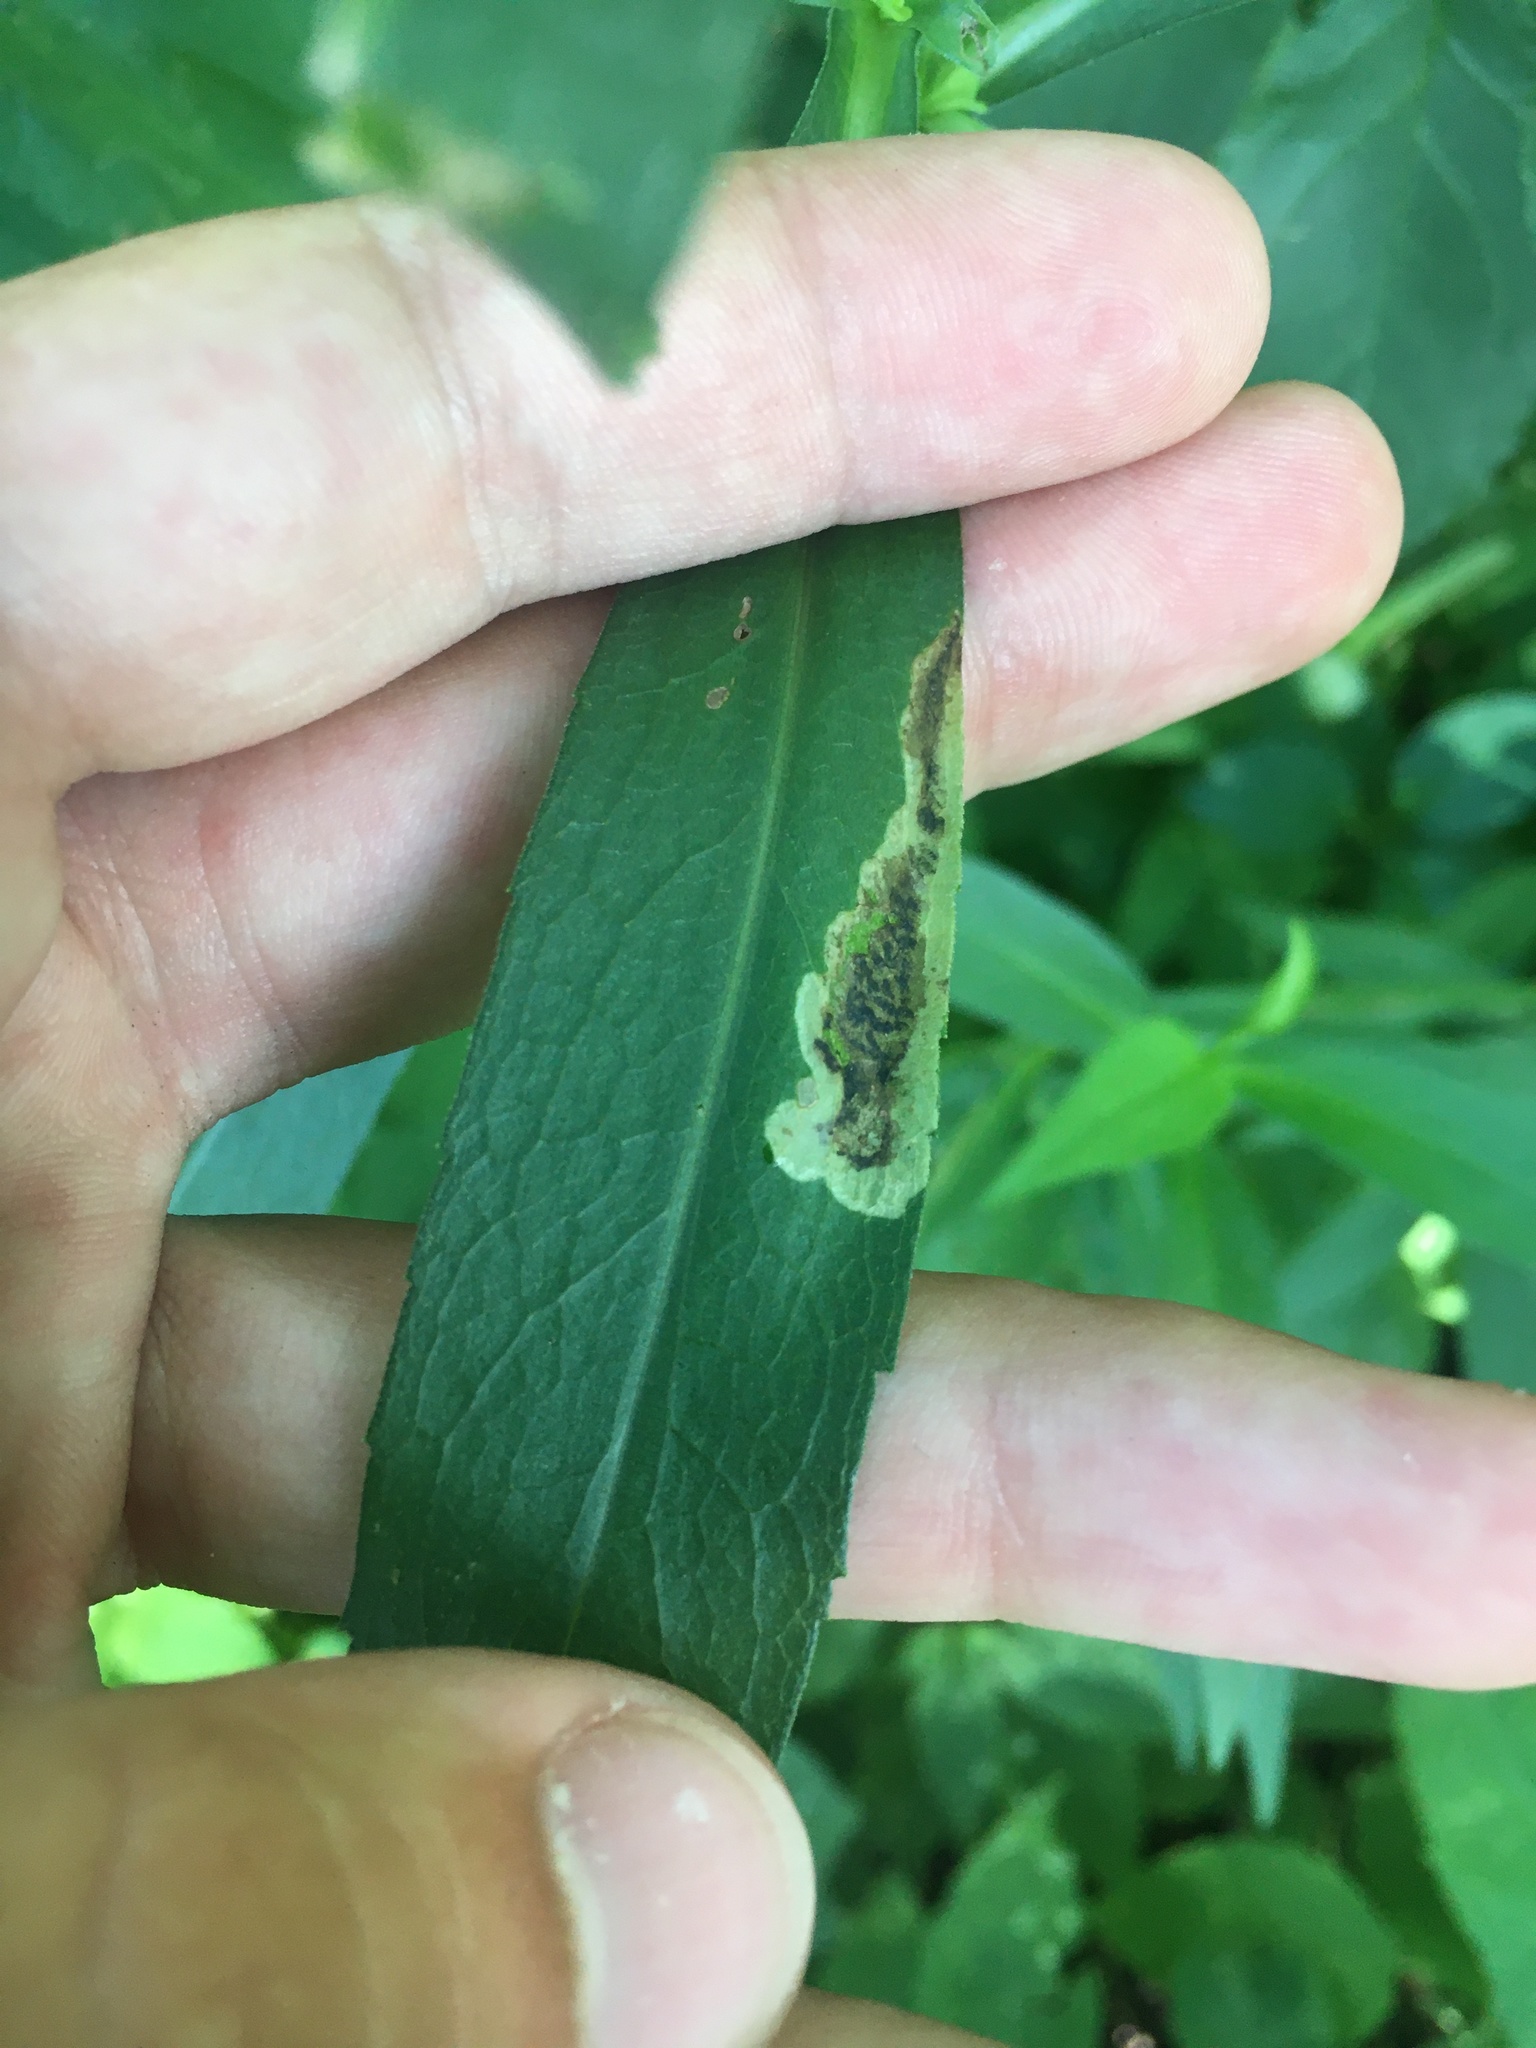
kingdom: Animalia
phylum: Arthropoda
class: Insecta
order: Diptera
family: Agromyzidae
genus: Nemorimyza
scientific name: Nemorimyza posticata
